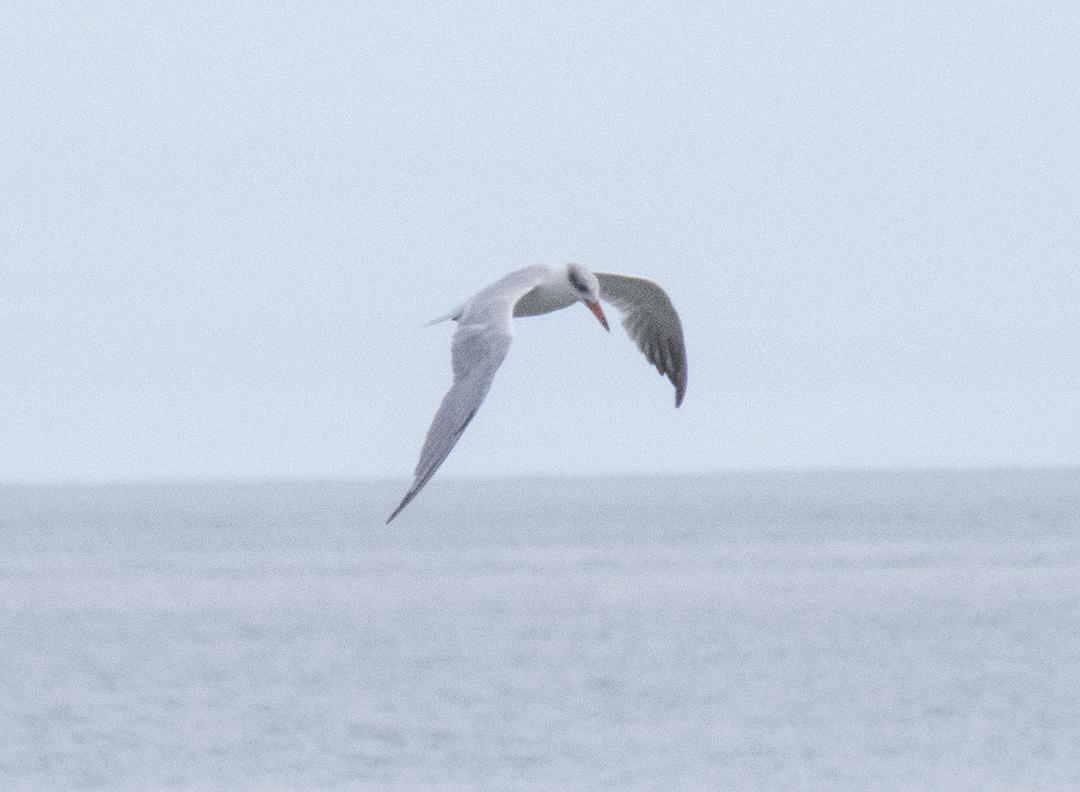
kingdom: Animalia
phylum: Chordata
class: Aves
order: Charadriiformes
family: Laridae
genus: Hydroprogne
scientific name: Hydroprogne caspia
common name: Caspian tern
